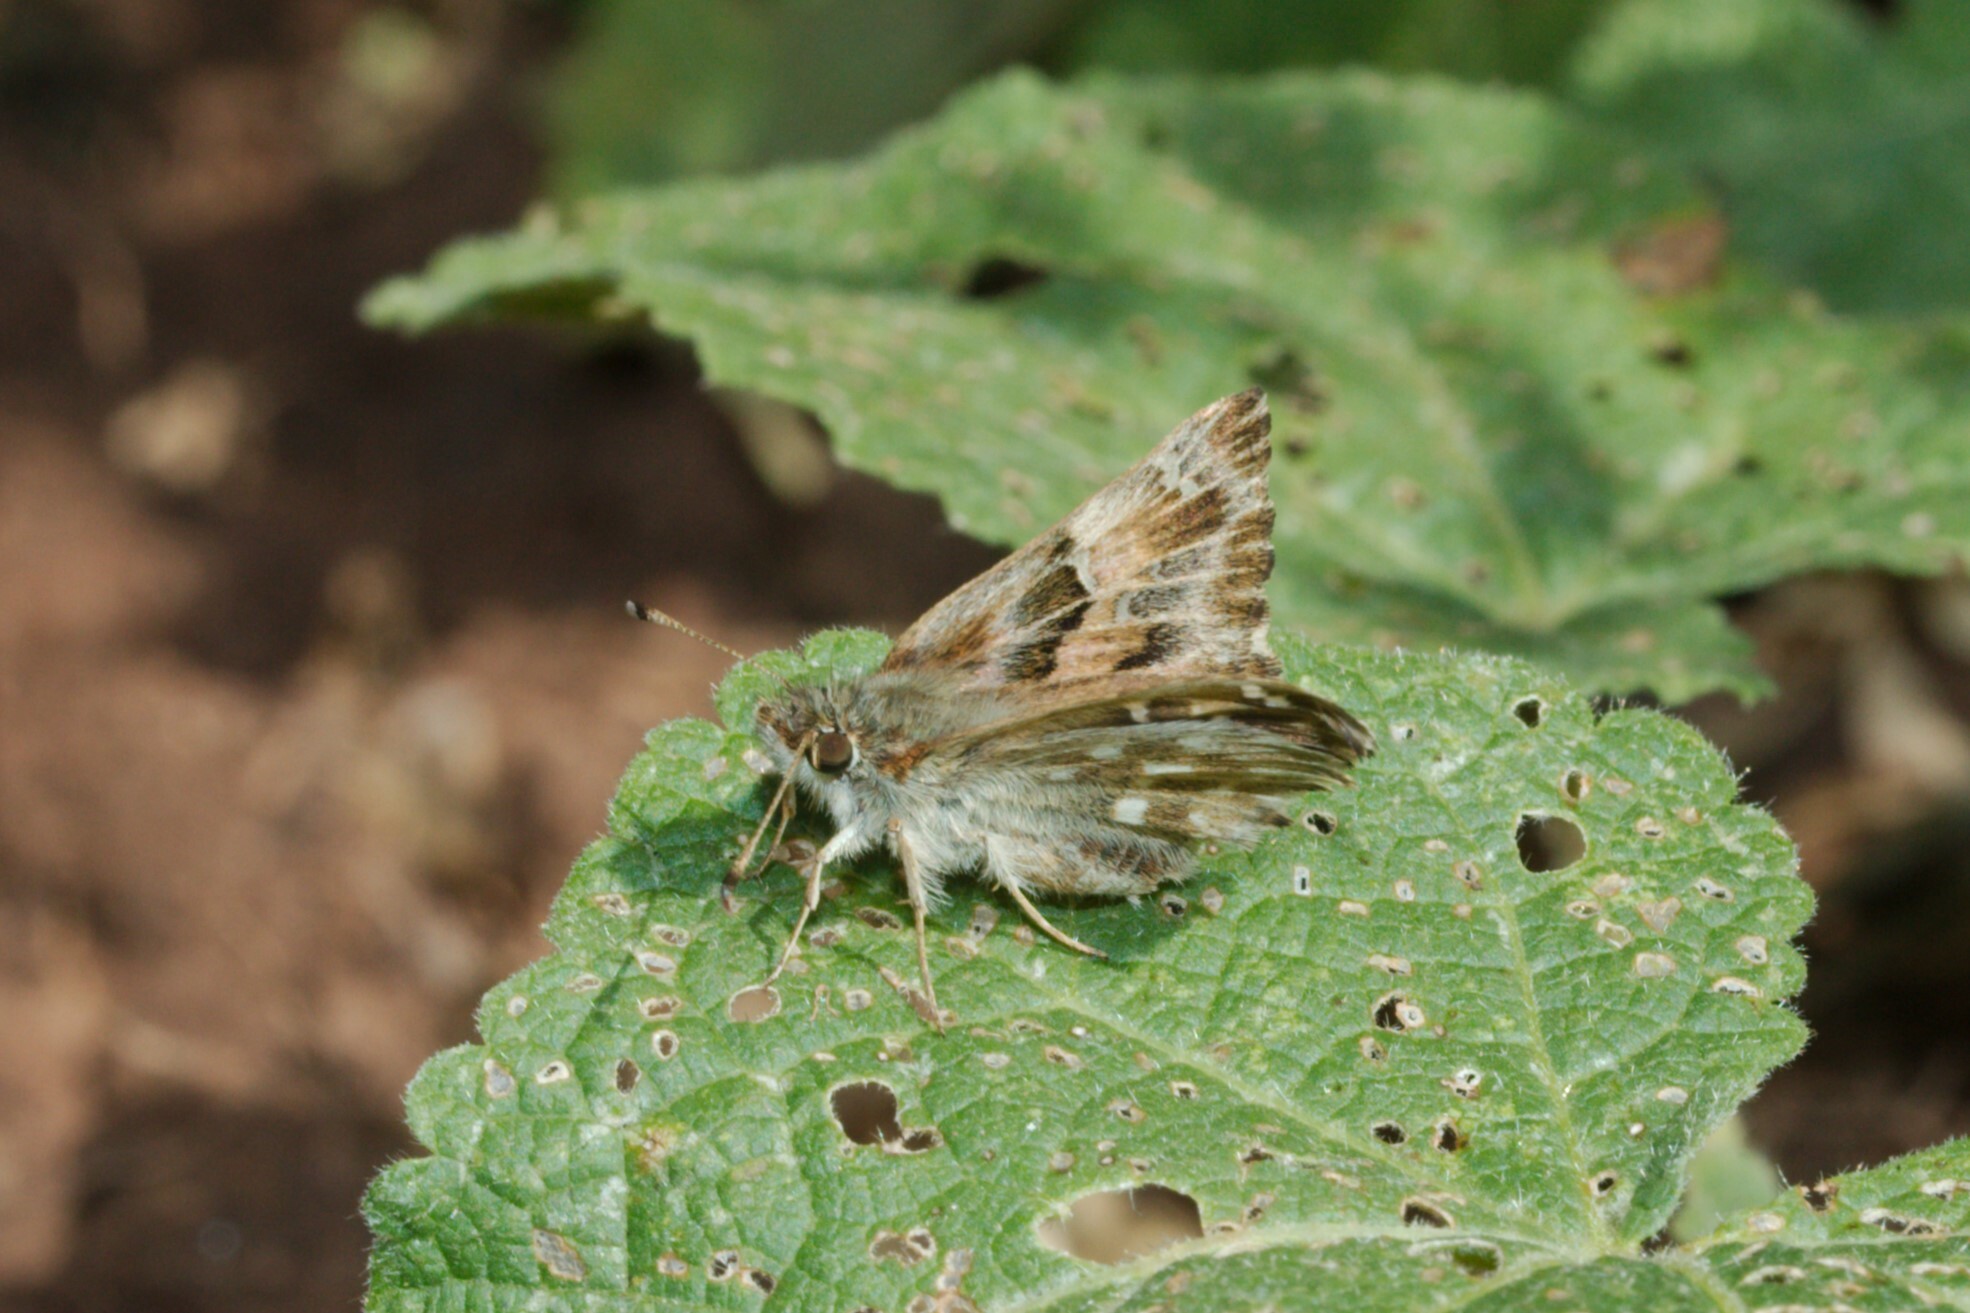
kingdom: Animalia
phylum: Arthropoda
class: Insecta
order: Lepidoptera
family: Hesperiidae
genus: Carcharodus
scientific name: Carcharodus alceae
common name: Mallow skipper
